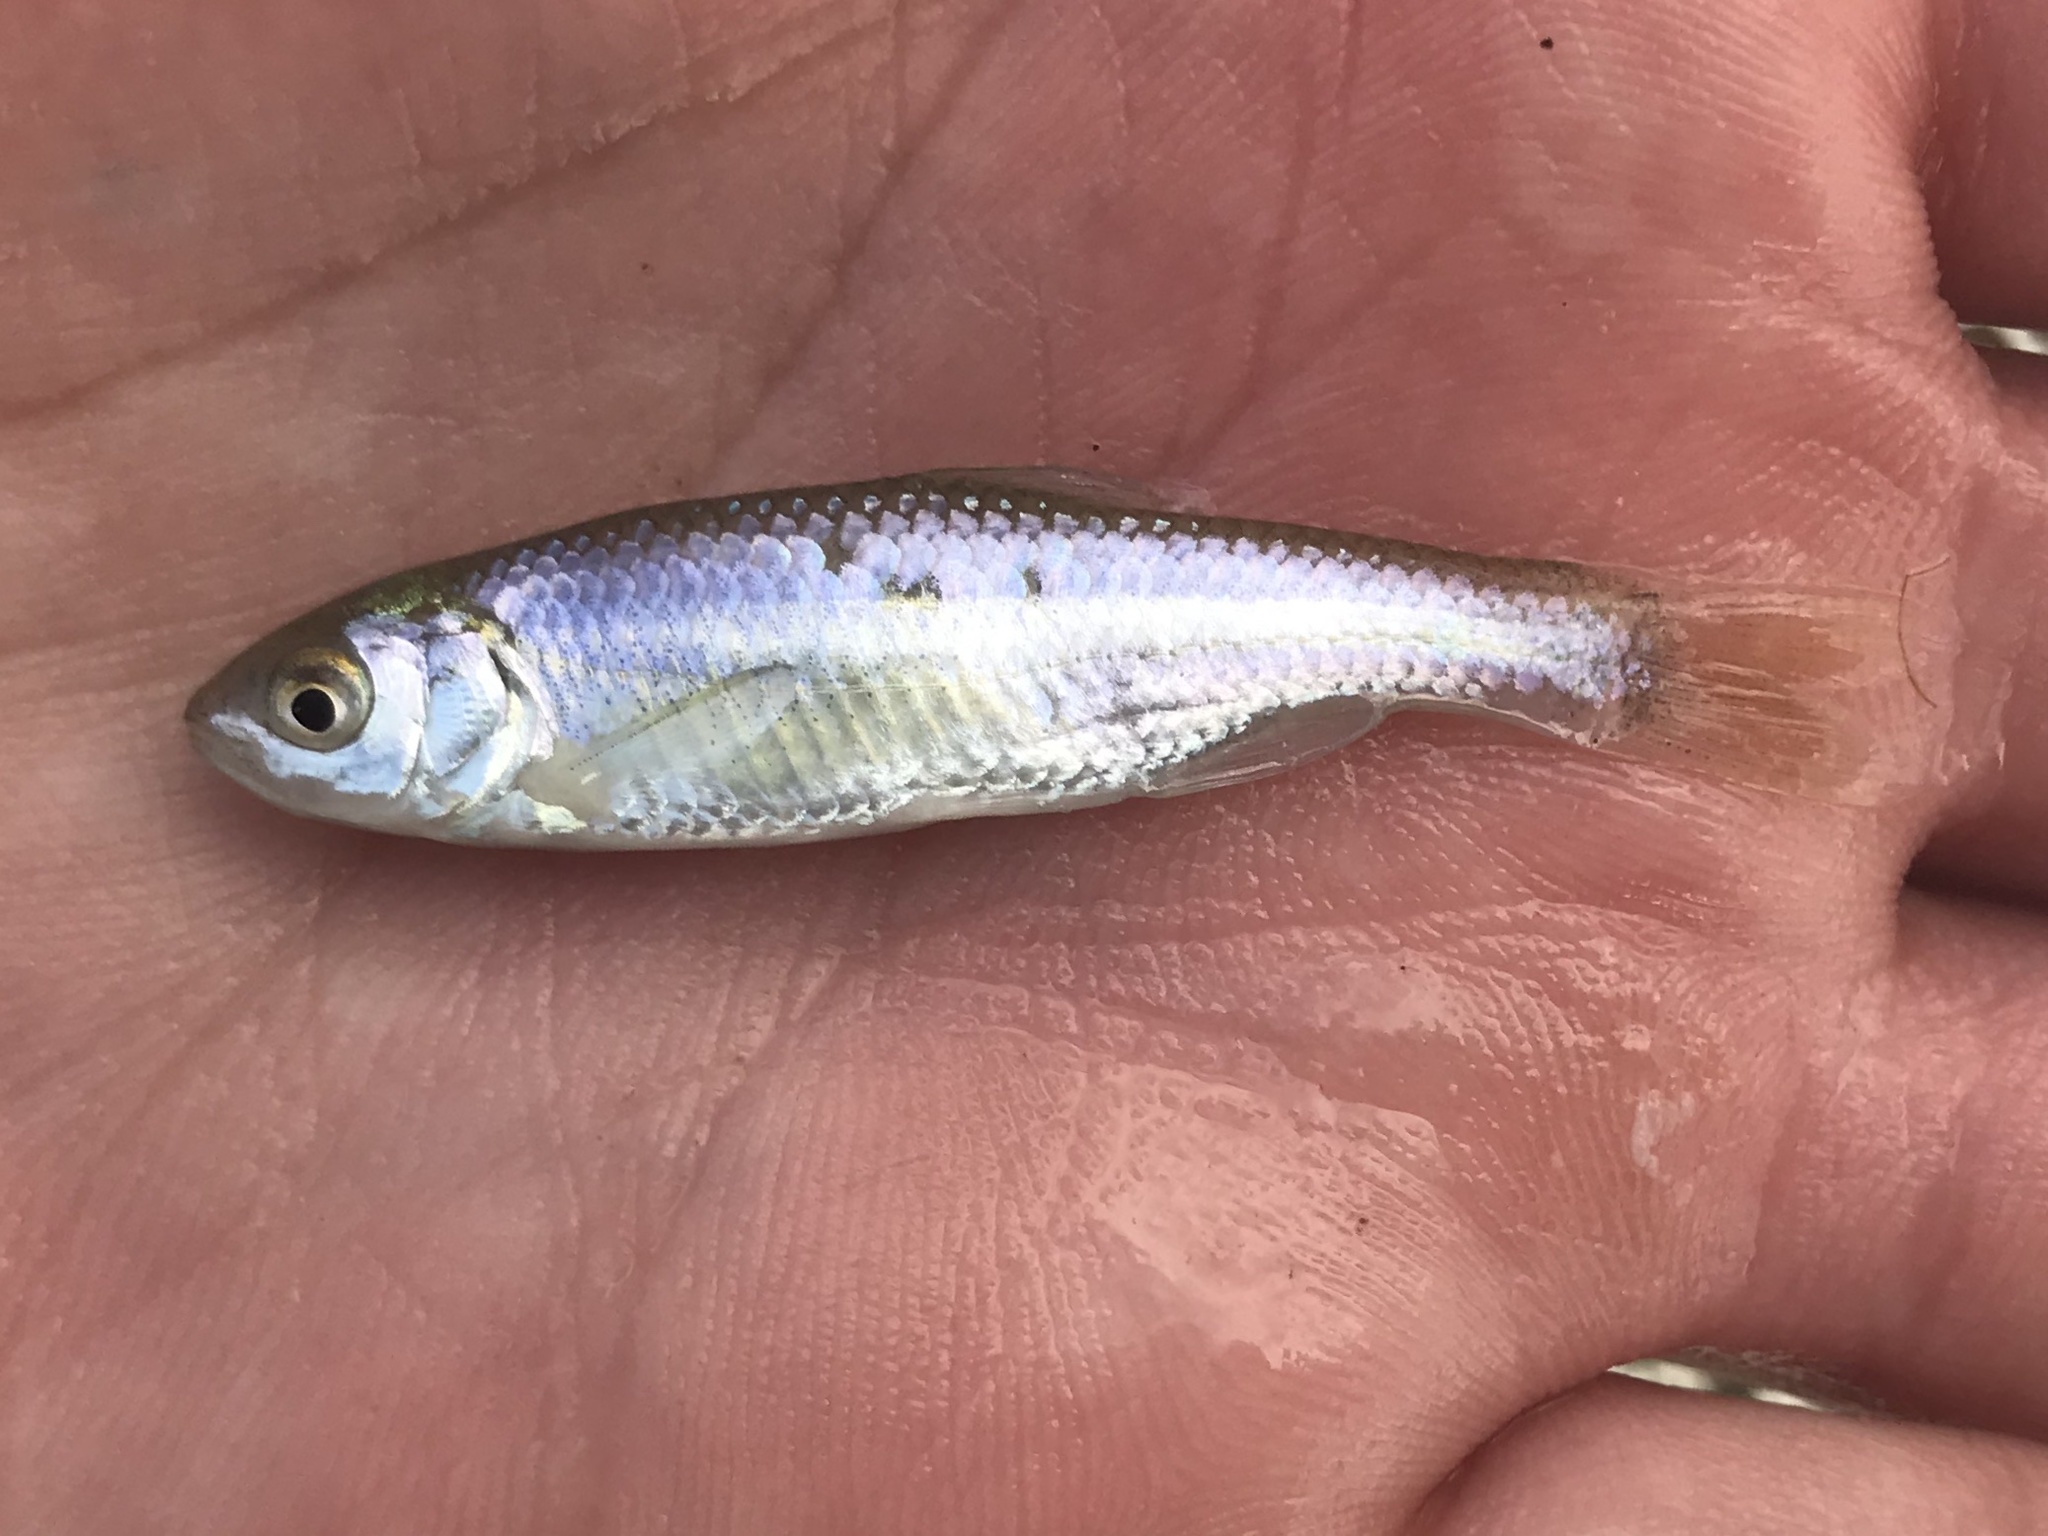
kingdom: Animalia
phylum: Chordata
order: Cypriniformes
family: Cyprinidae
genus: Cyprinella
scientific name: Cyprinella lutrensis
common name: Red shiner
